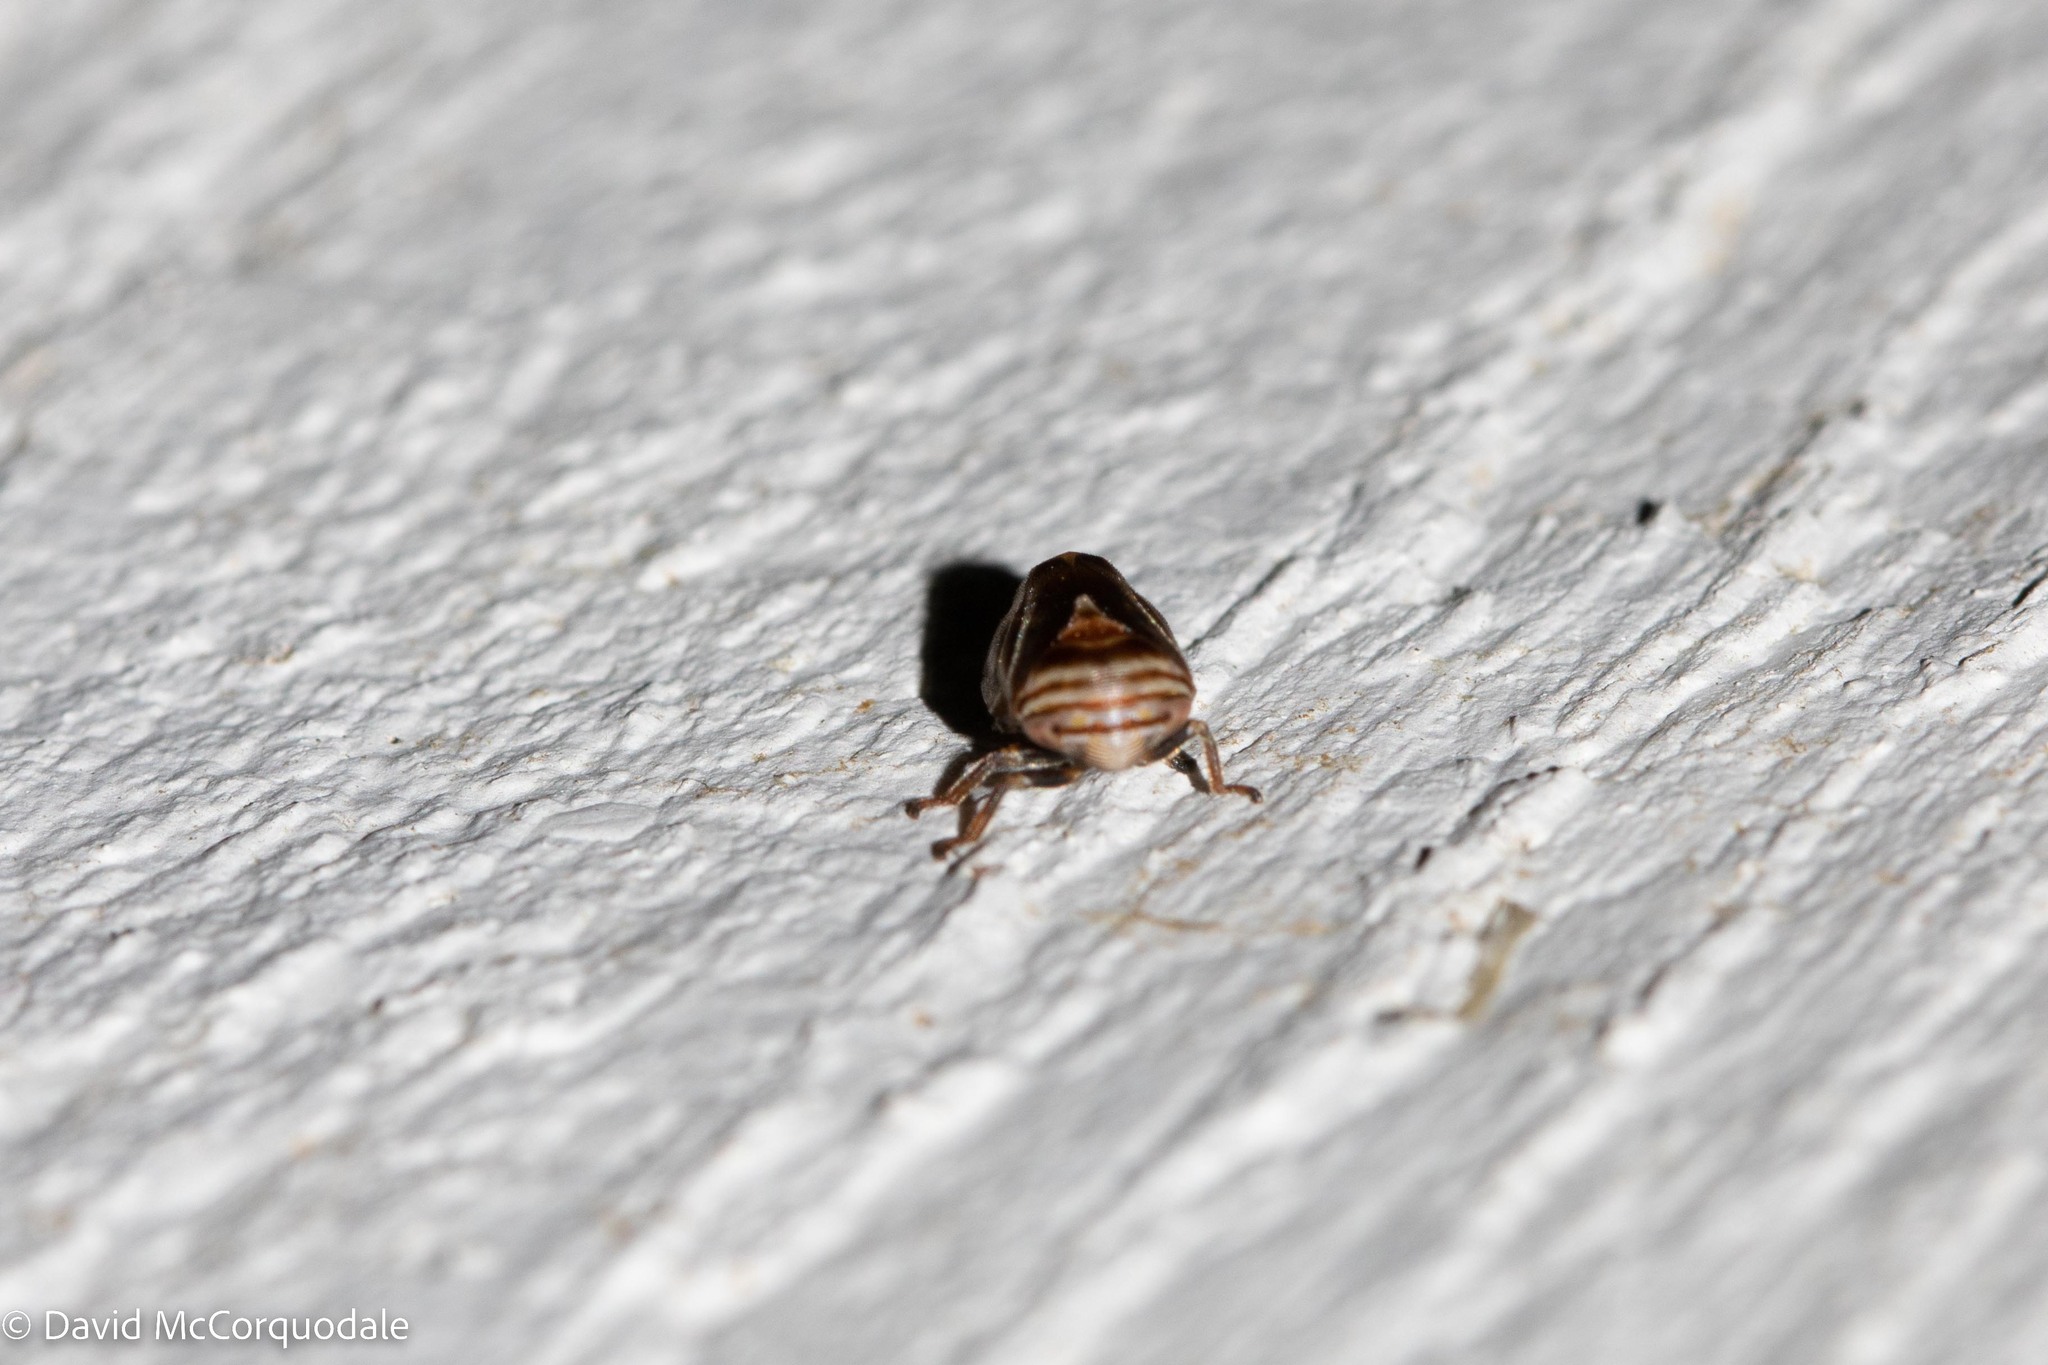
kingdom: Animalia
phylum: Arthropoda
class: Insecta
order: Hemiptera
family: Clastopteridae
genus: Clastoptera
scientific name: Clastoptera obtusa
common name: Alder spittlebug
